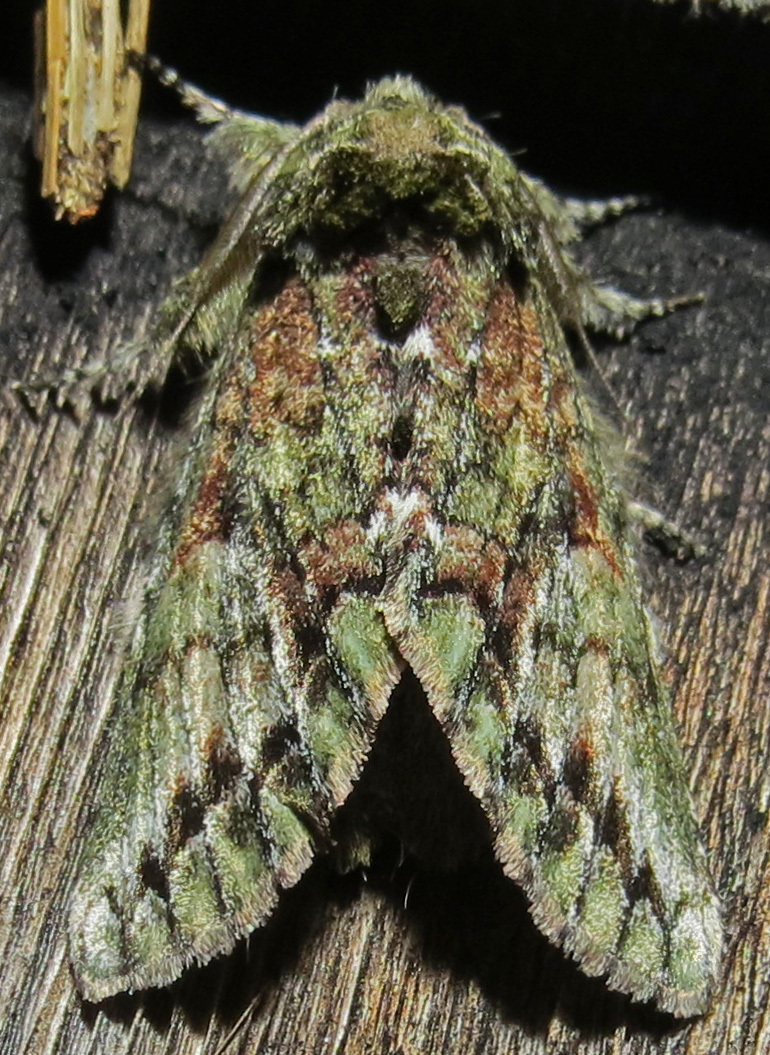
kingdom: Animalia
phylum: Arthropoda
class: Insecta
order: Lepidoptera
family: Notodontidae
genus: Heterocampa
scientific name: Heterocampa
